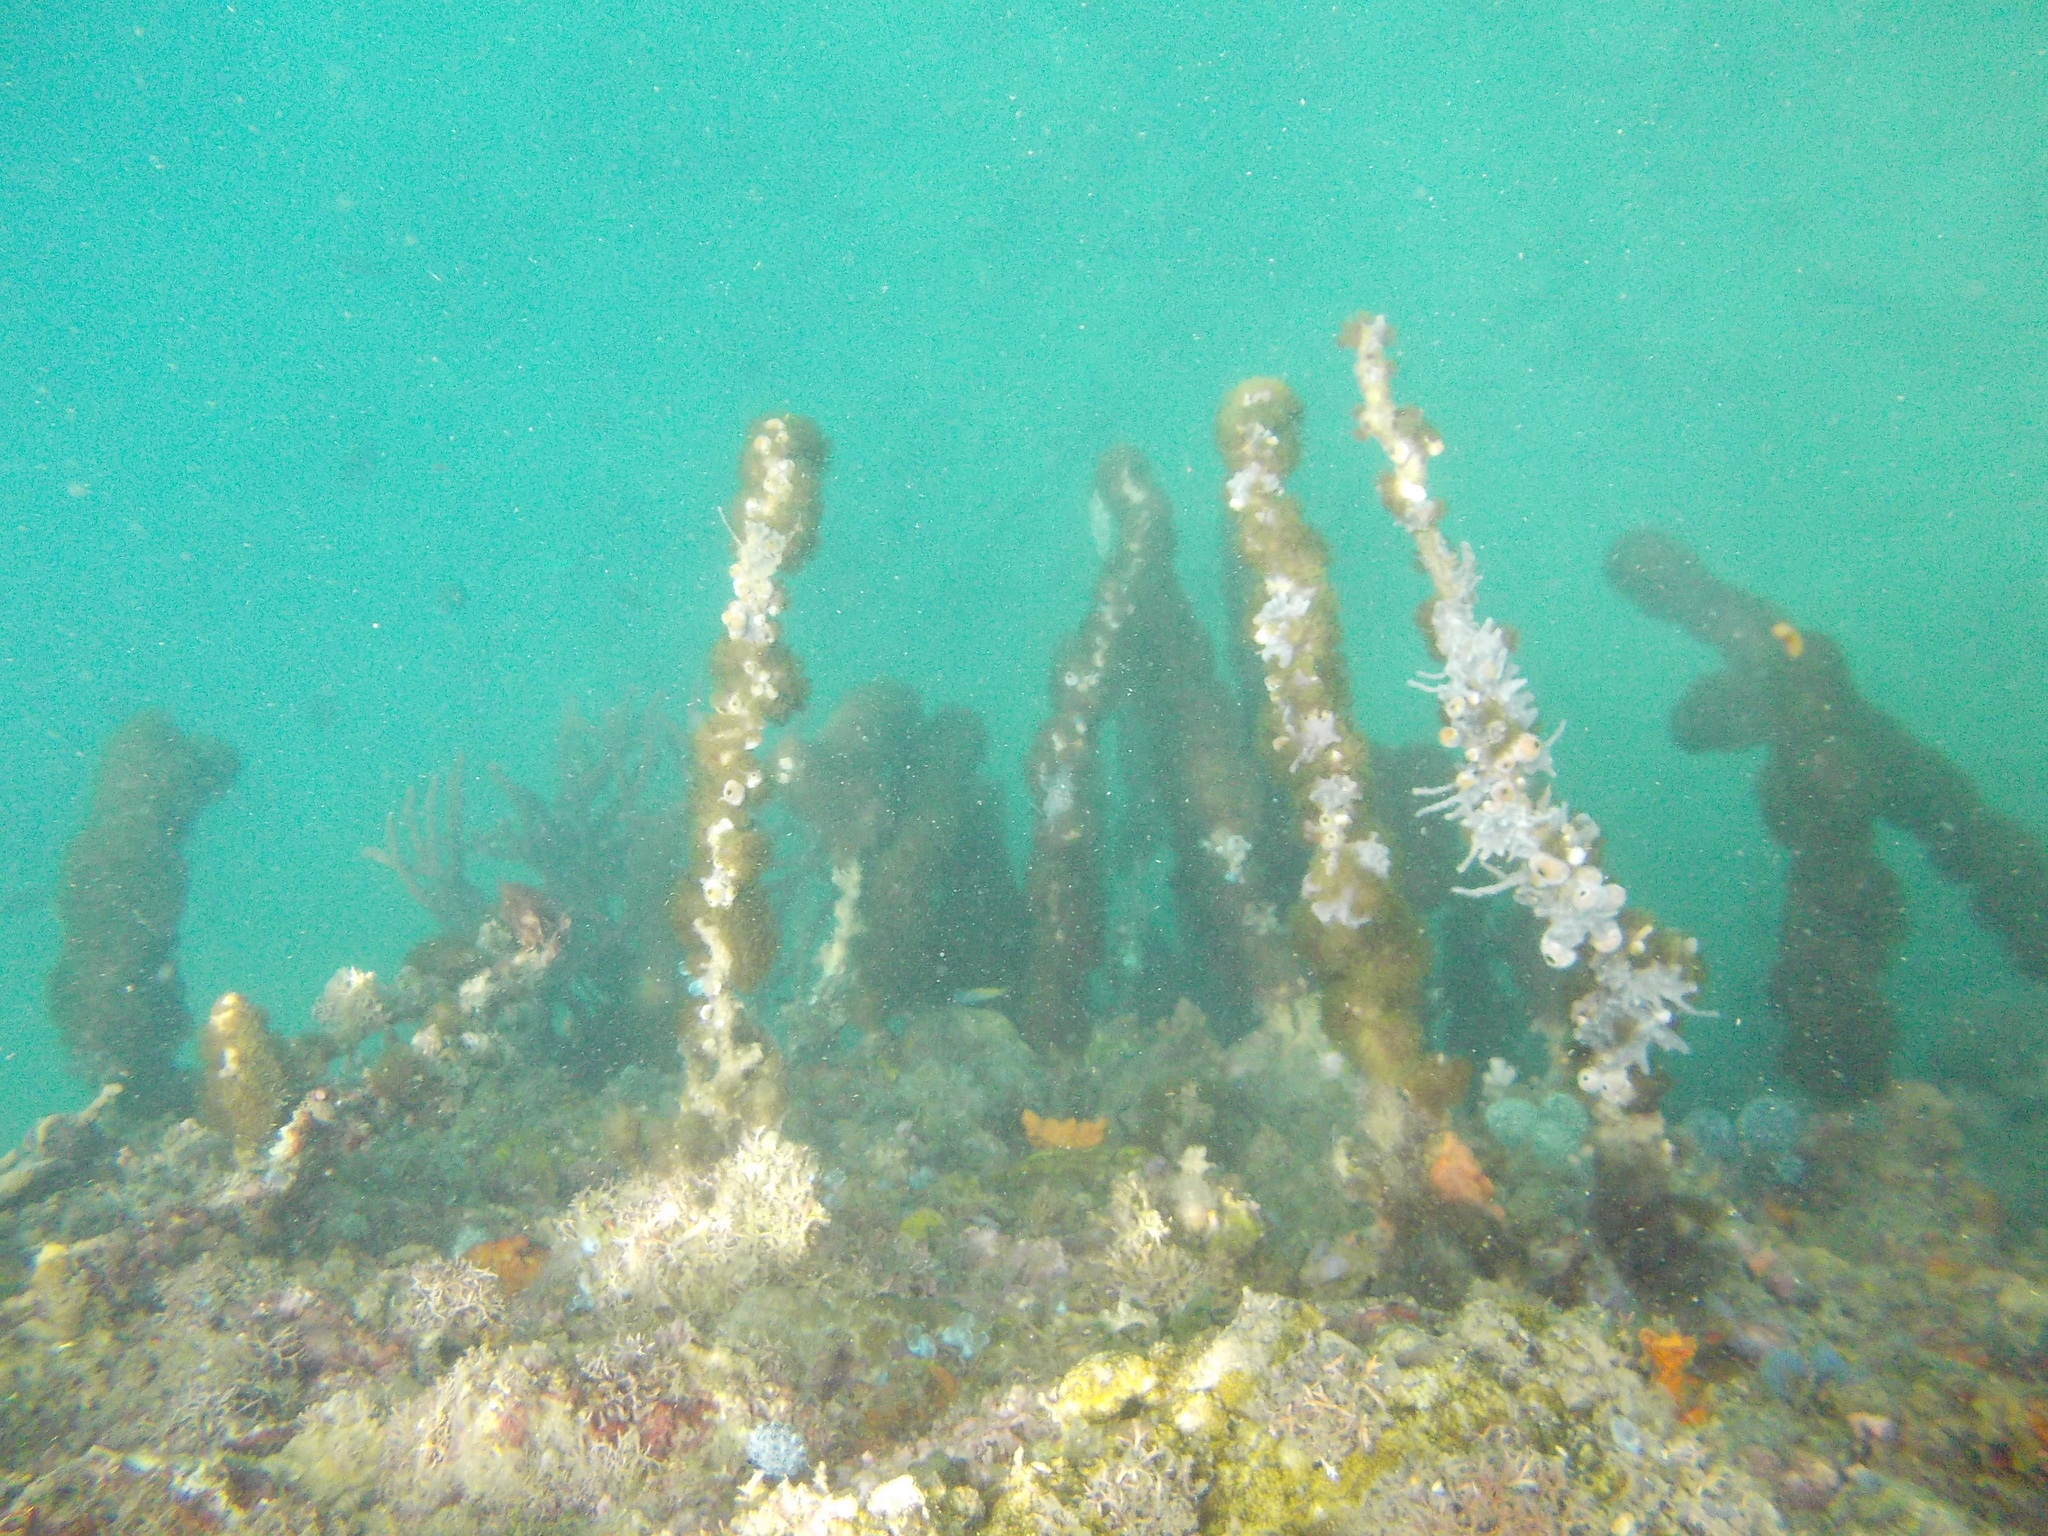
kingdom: Animalia
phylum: Cnidaria
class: Anthozoa
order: Zoantharia
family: Zoanthidae
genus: Acrozoanthus
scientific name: Acrozoanthus australiae
